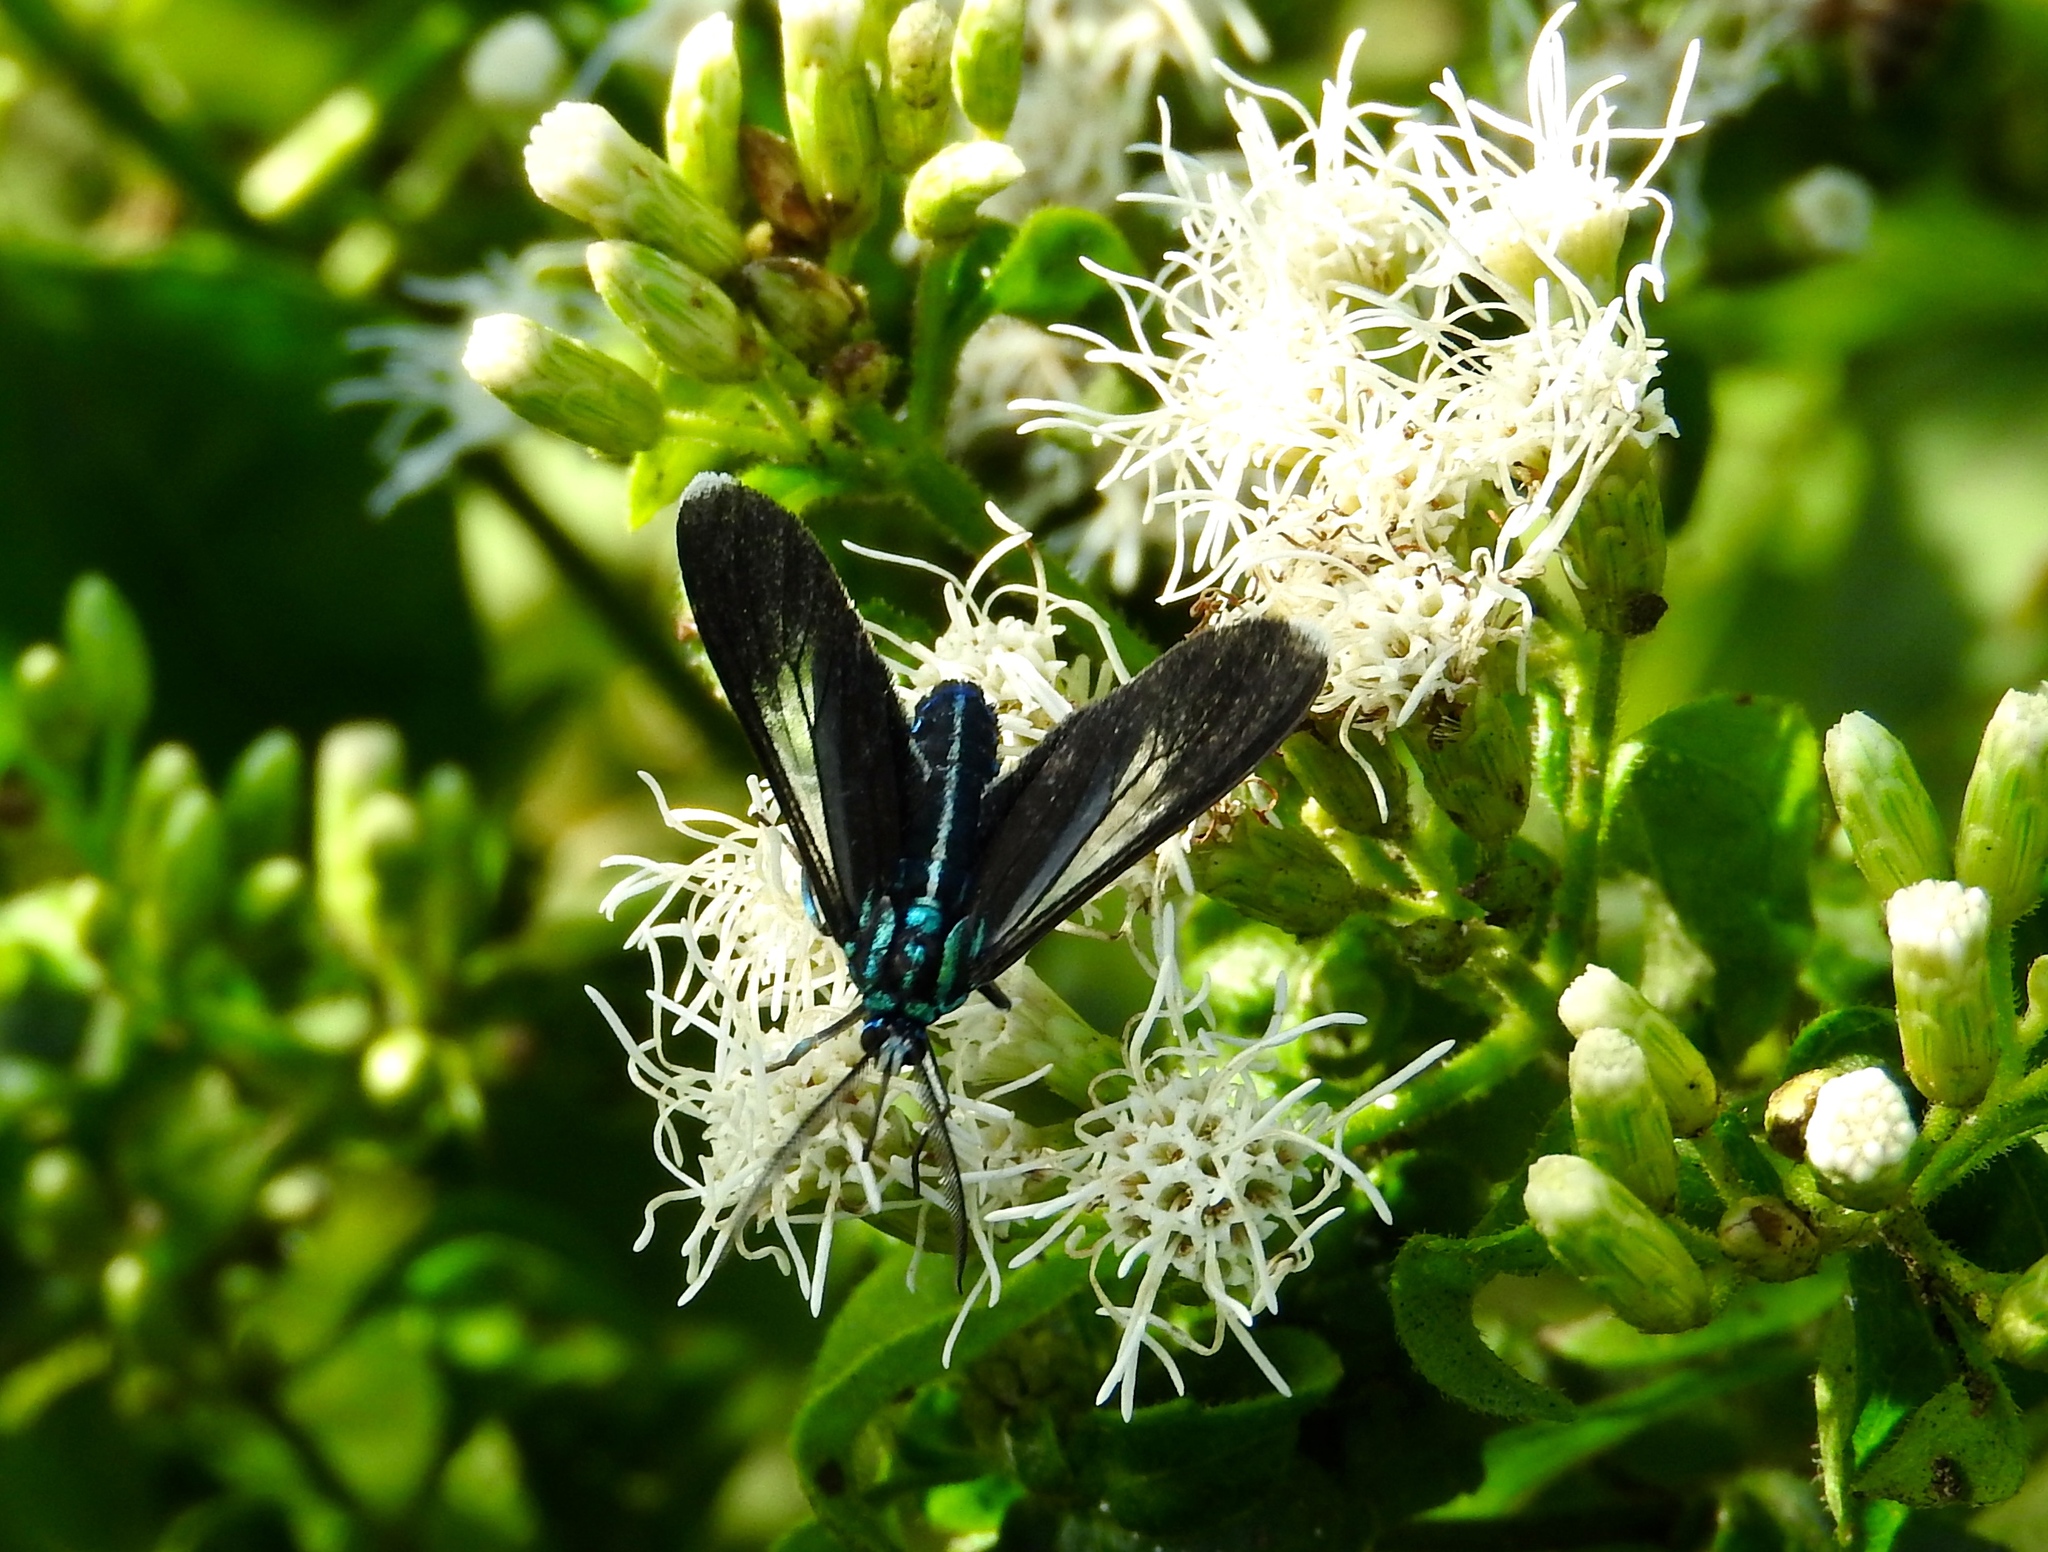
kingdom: Animalia
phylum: Arthropoda
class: Insecta
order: Lepidoptera
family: Erebidae
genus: Uranophora
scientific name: Uranophora leucotela
